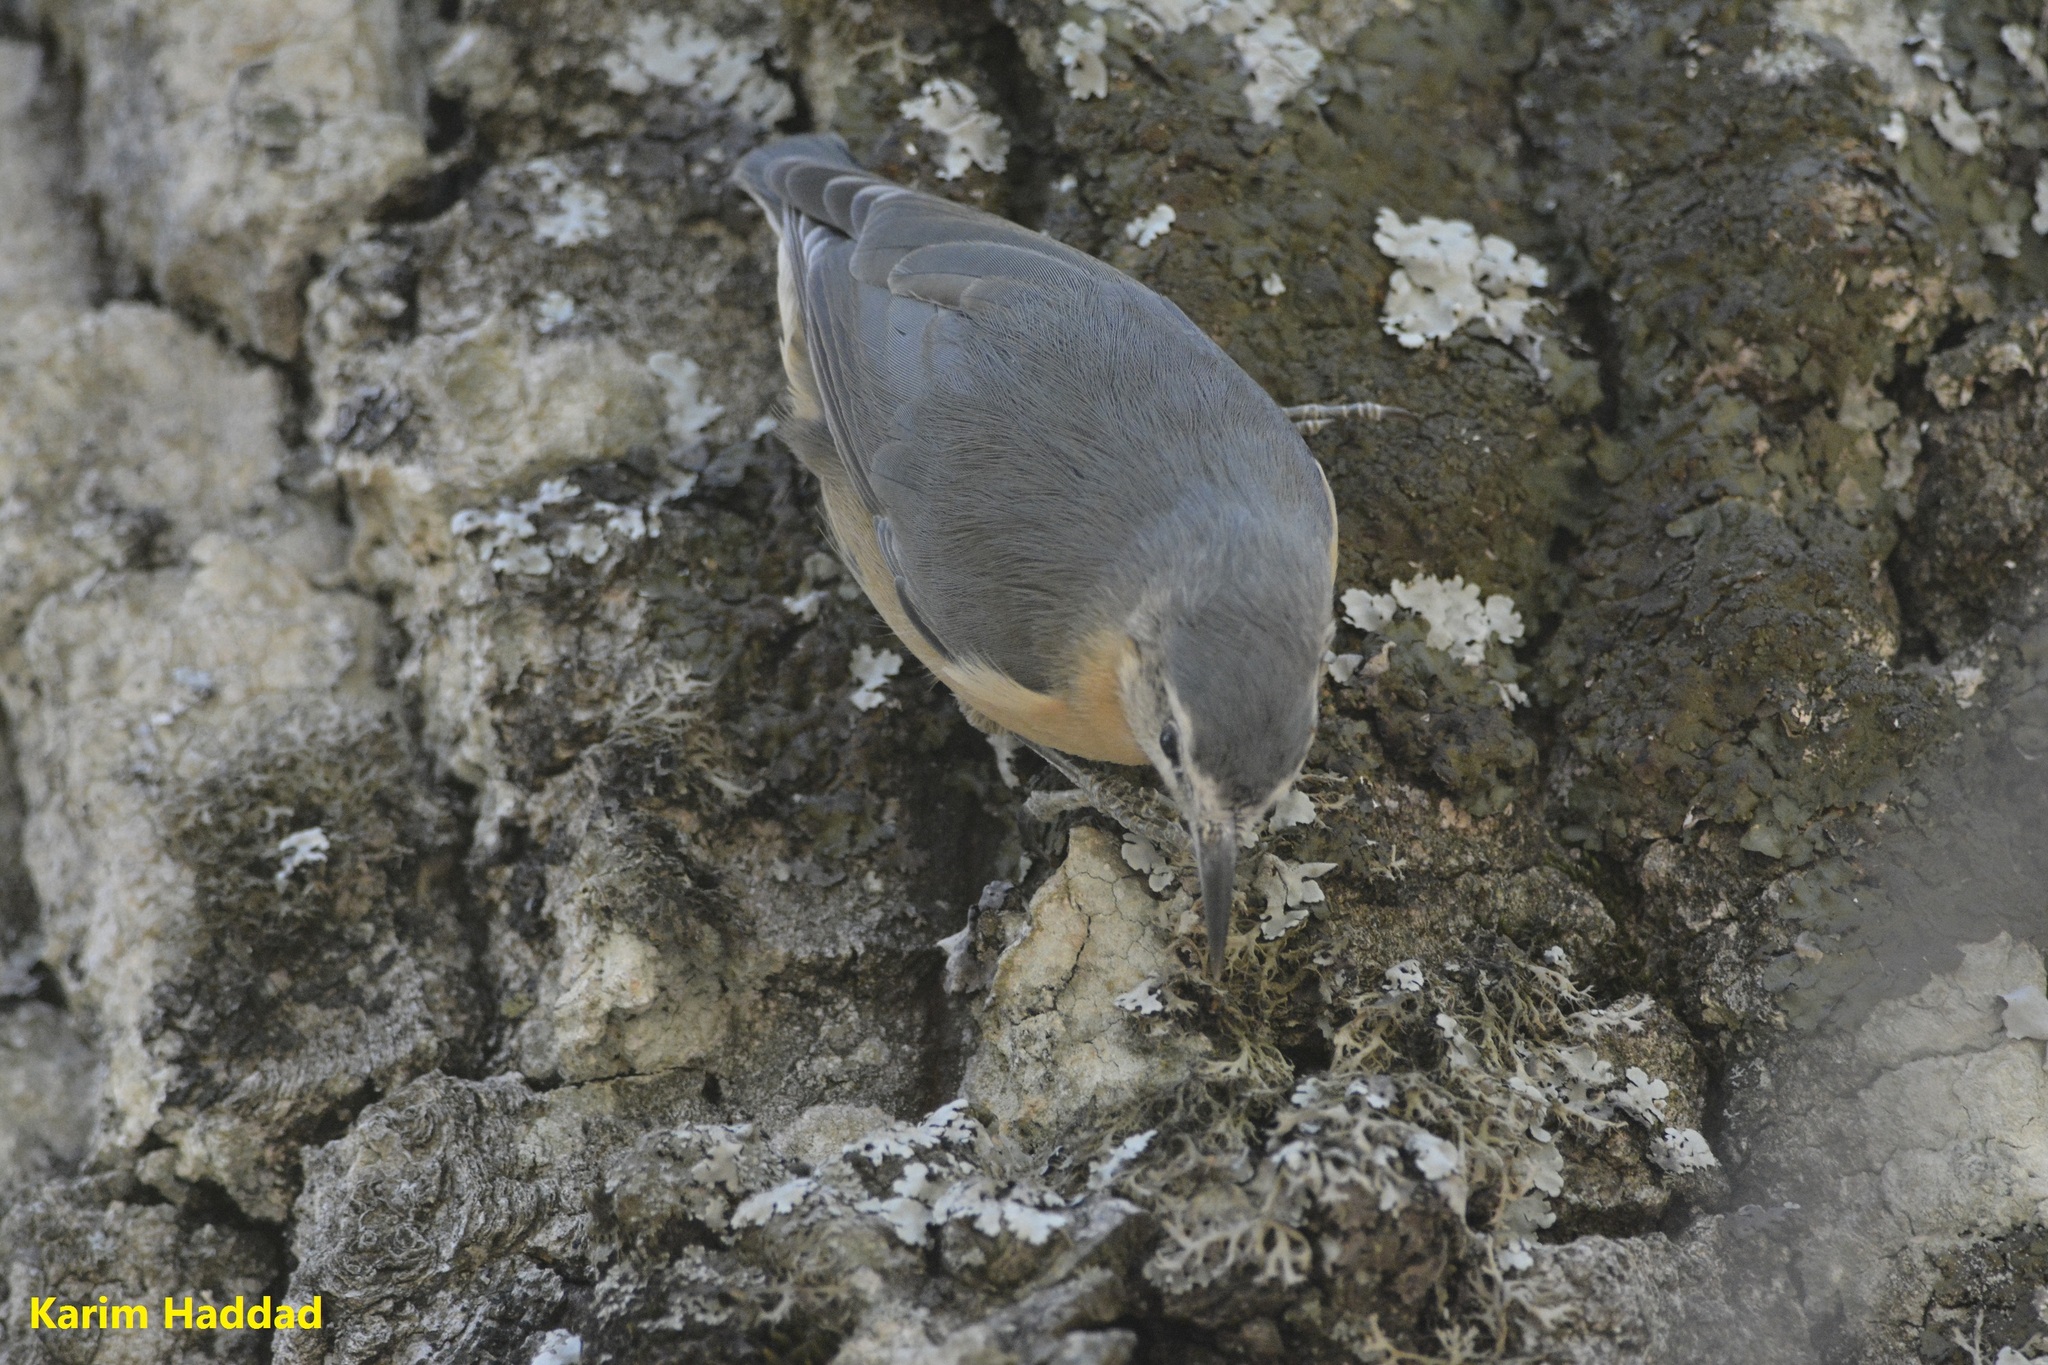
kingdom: Animalia
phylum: Chordata
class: Aves
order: Passeriformes
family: Sittidae
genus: Sitta
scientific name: Sitta ledanti
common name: Algerian nuthatch
